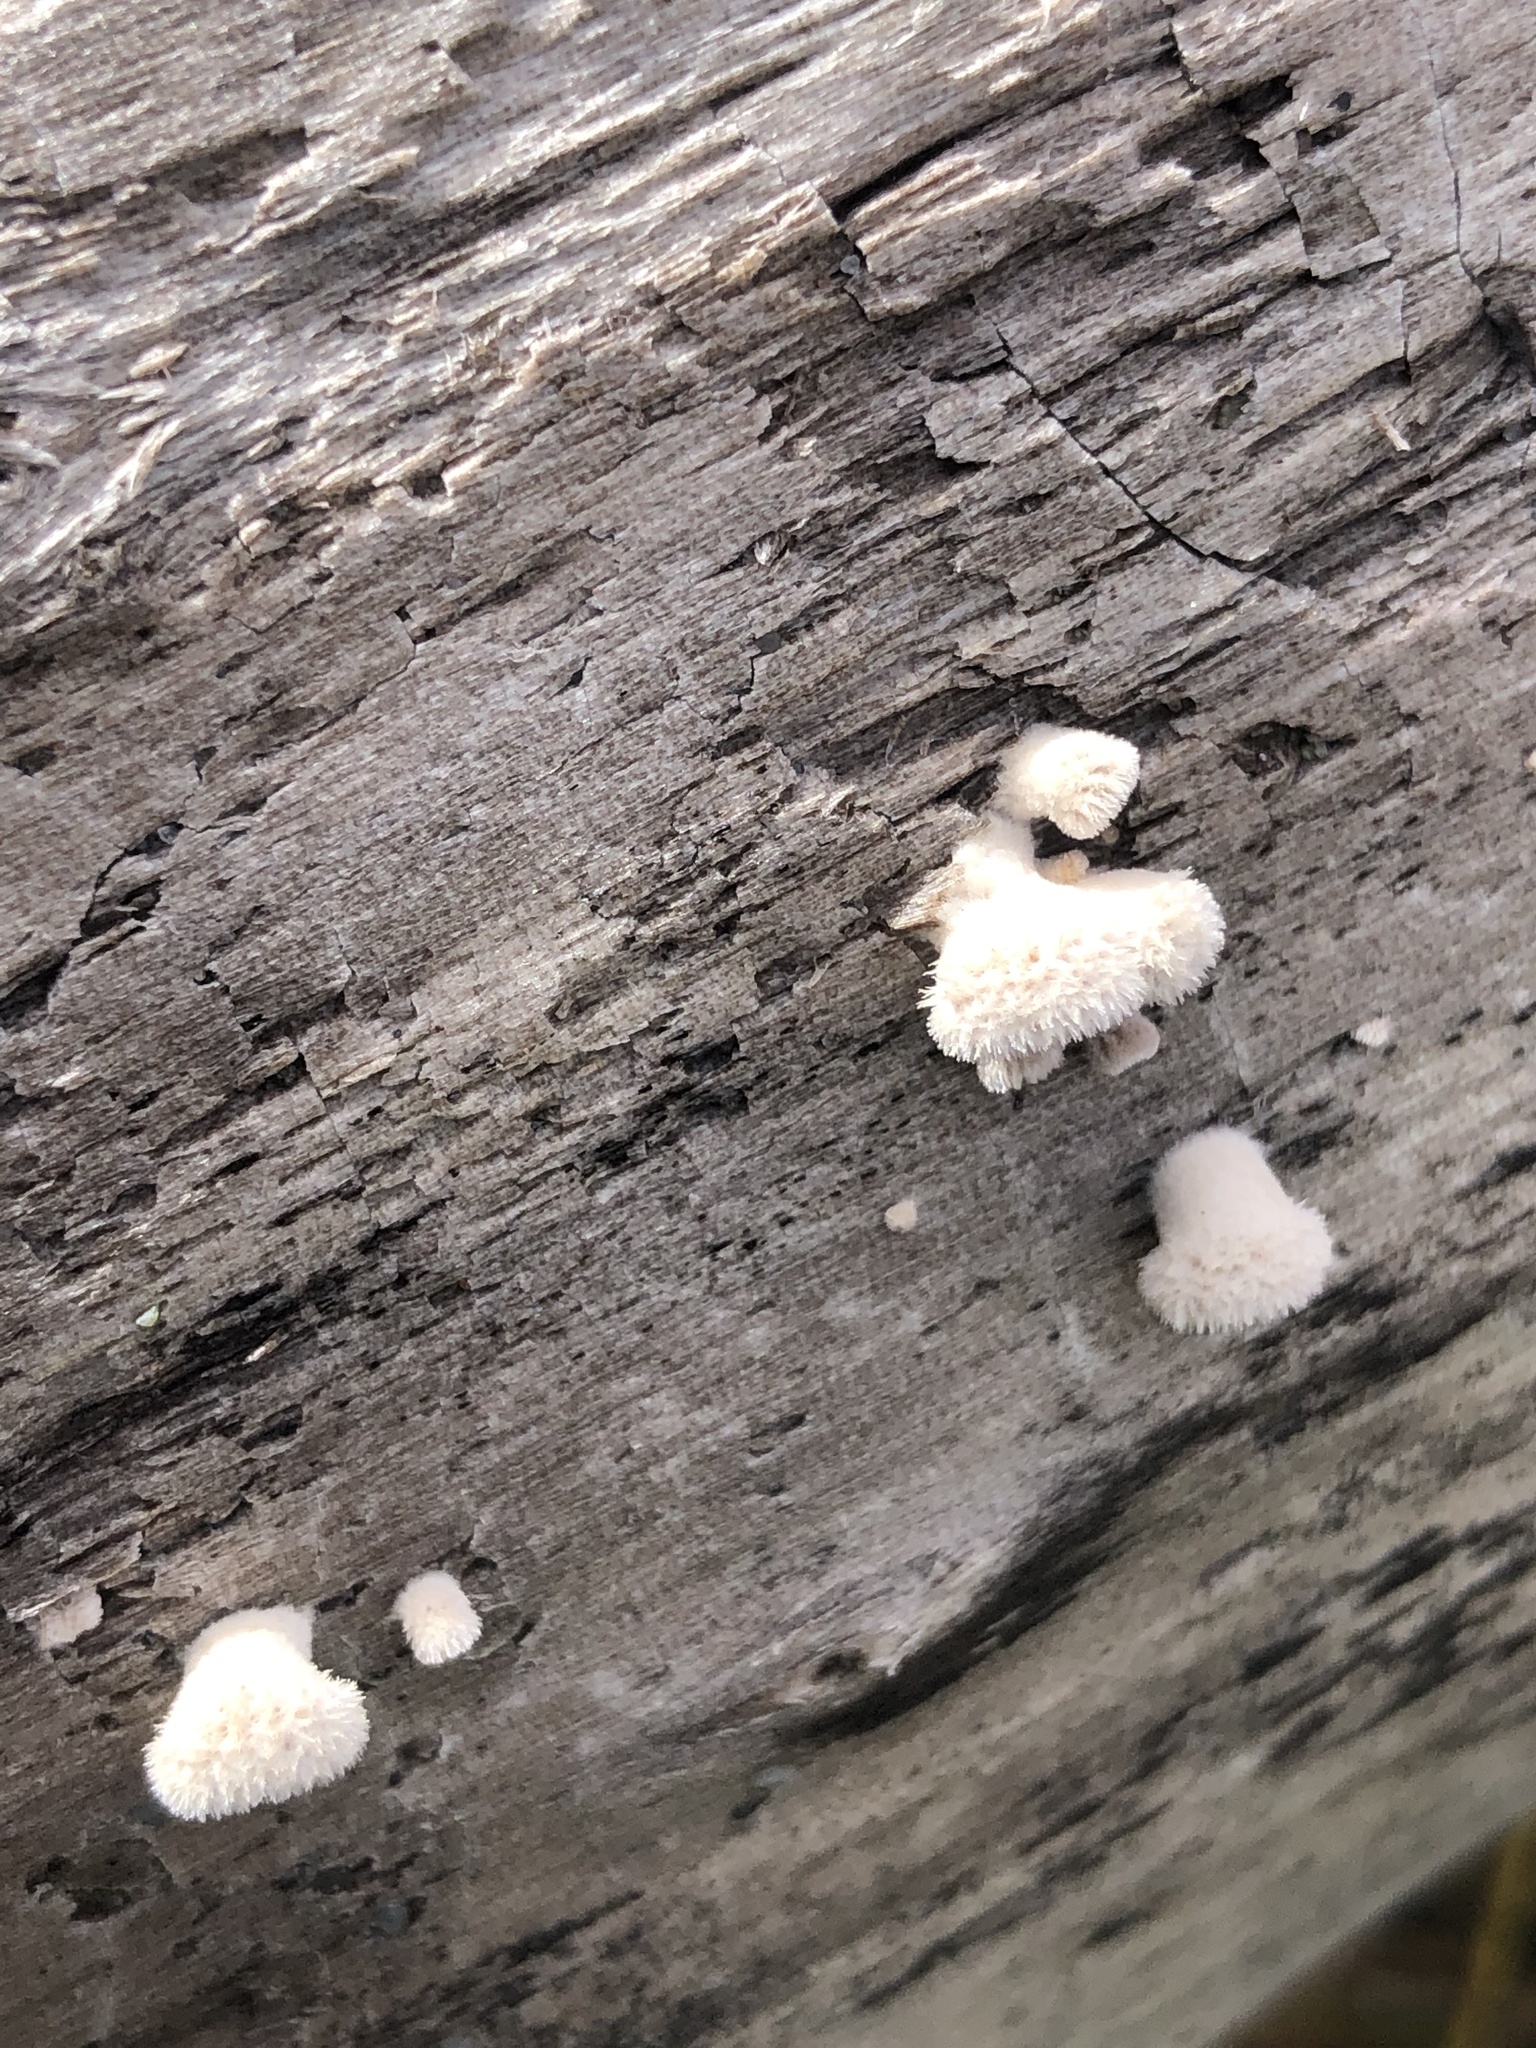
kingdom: Fungi
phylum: Basidiomycota
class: Agaricomycetes
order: Agaricales
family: Schizophyllaceae
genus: Schizophyllum
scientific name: Schizophyllum commune
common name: Common porecrust
